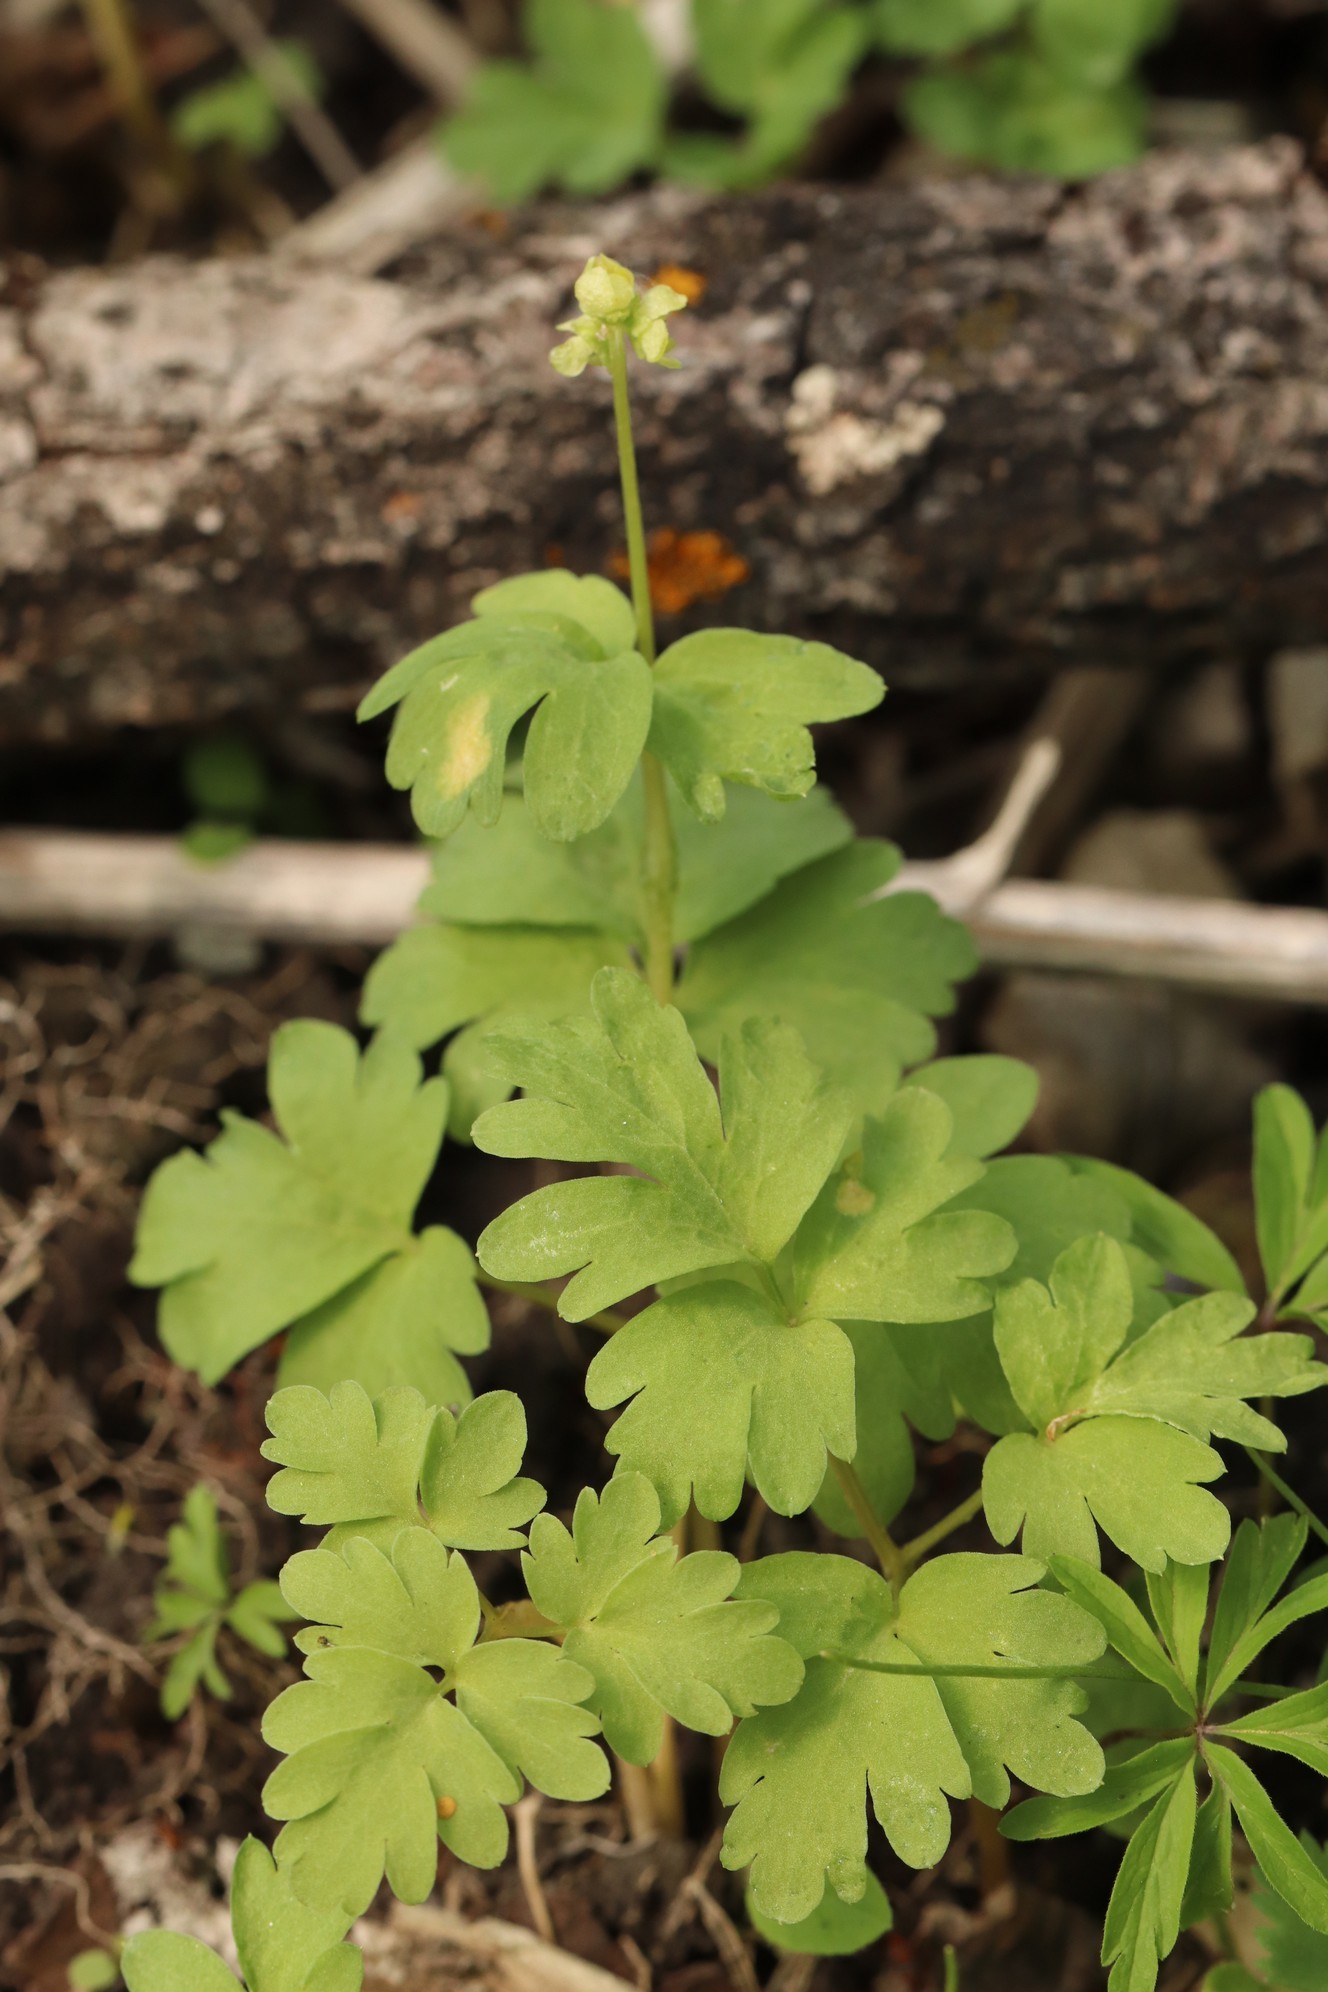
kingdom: Plantae
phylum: Tracheophyta
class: Magnoliopsida
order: Dipsacales
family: Viburnaceae
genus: Adoxa
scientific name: Adoxa moschatellina
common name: Moschatel
